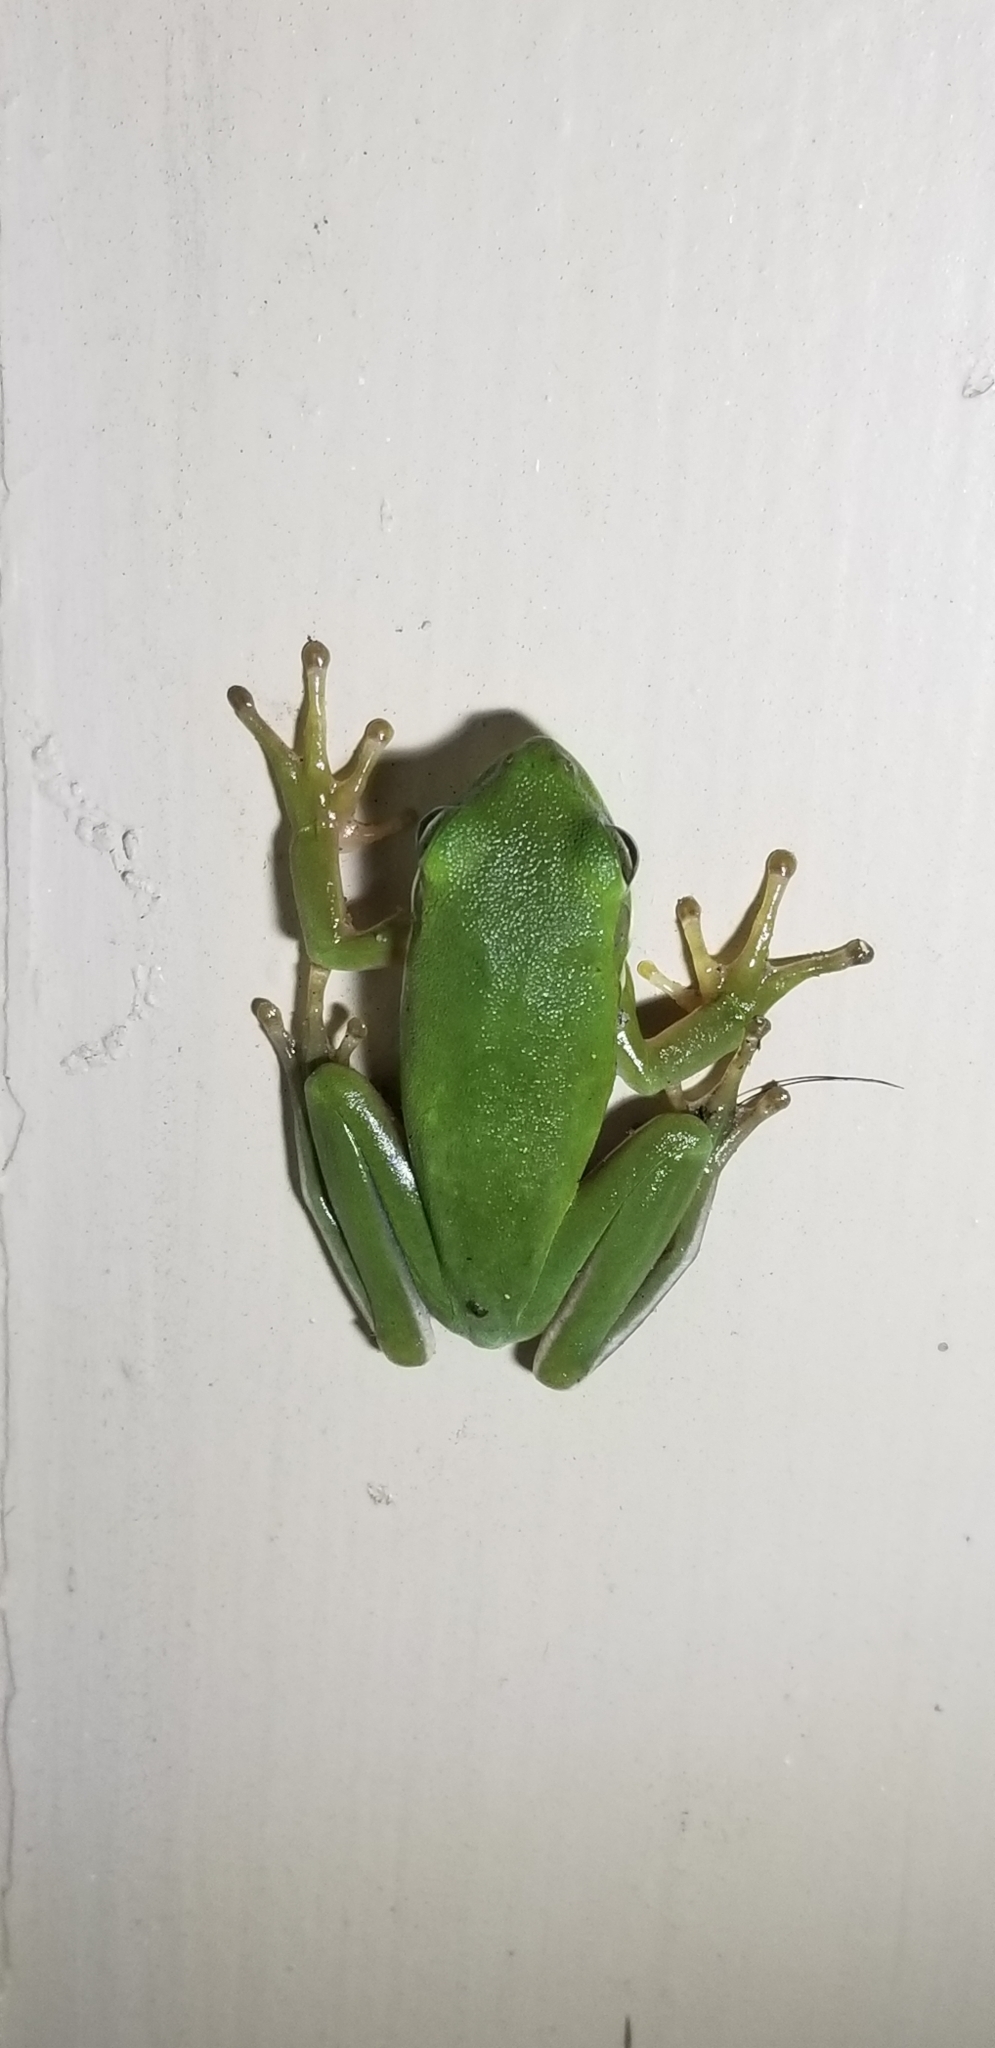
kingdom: Animalia
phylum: Chordata
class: Amphibia
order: Anura
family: Hylidae
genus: Dryophytes
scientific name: Dryophytes cinereus
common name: Green treefrog
